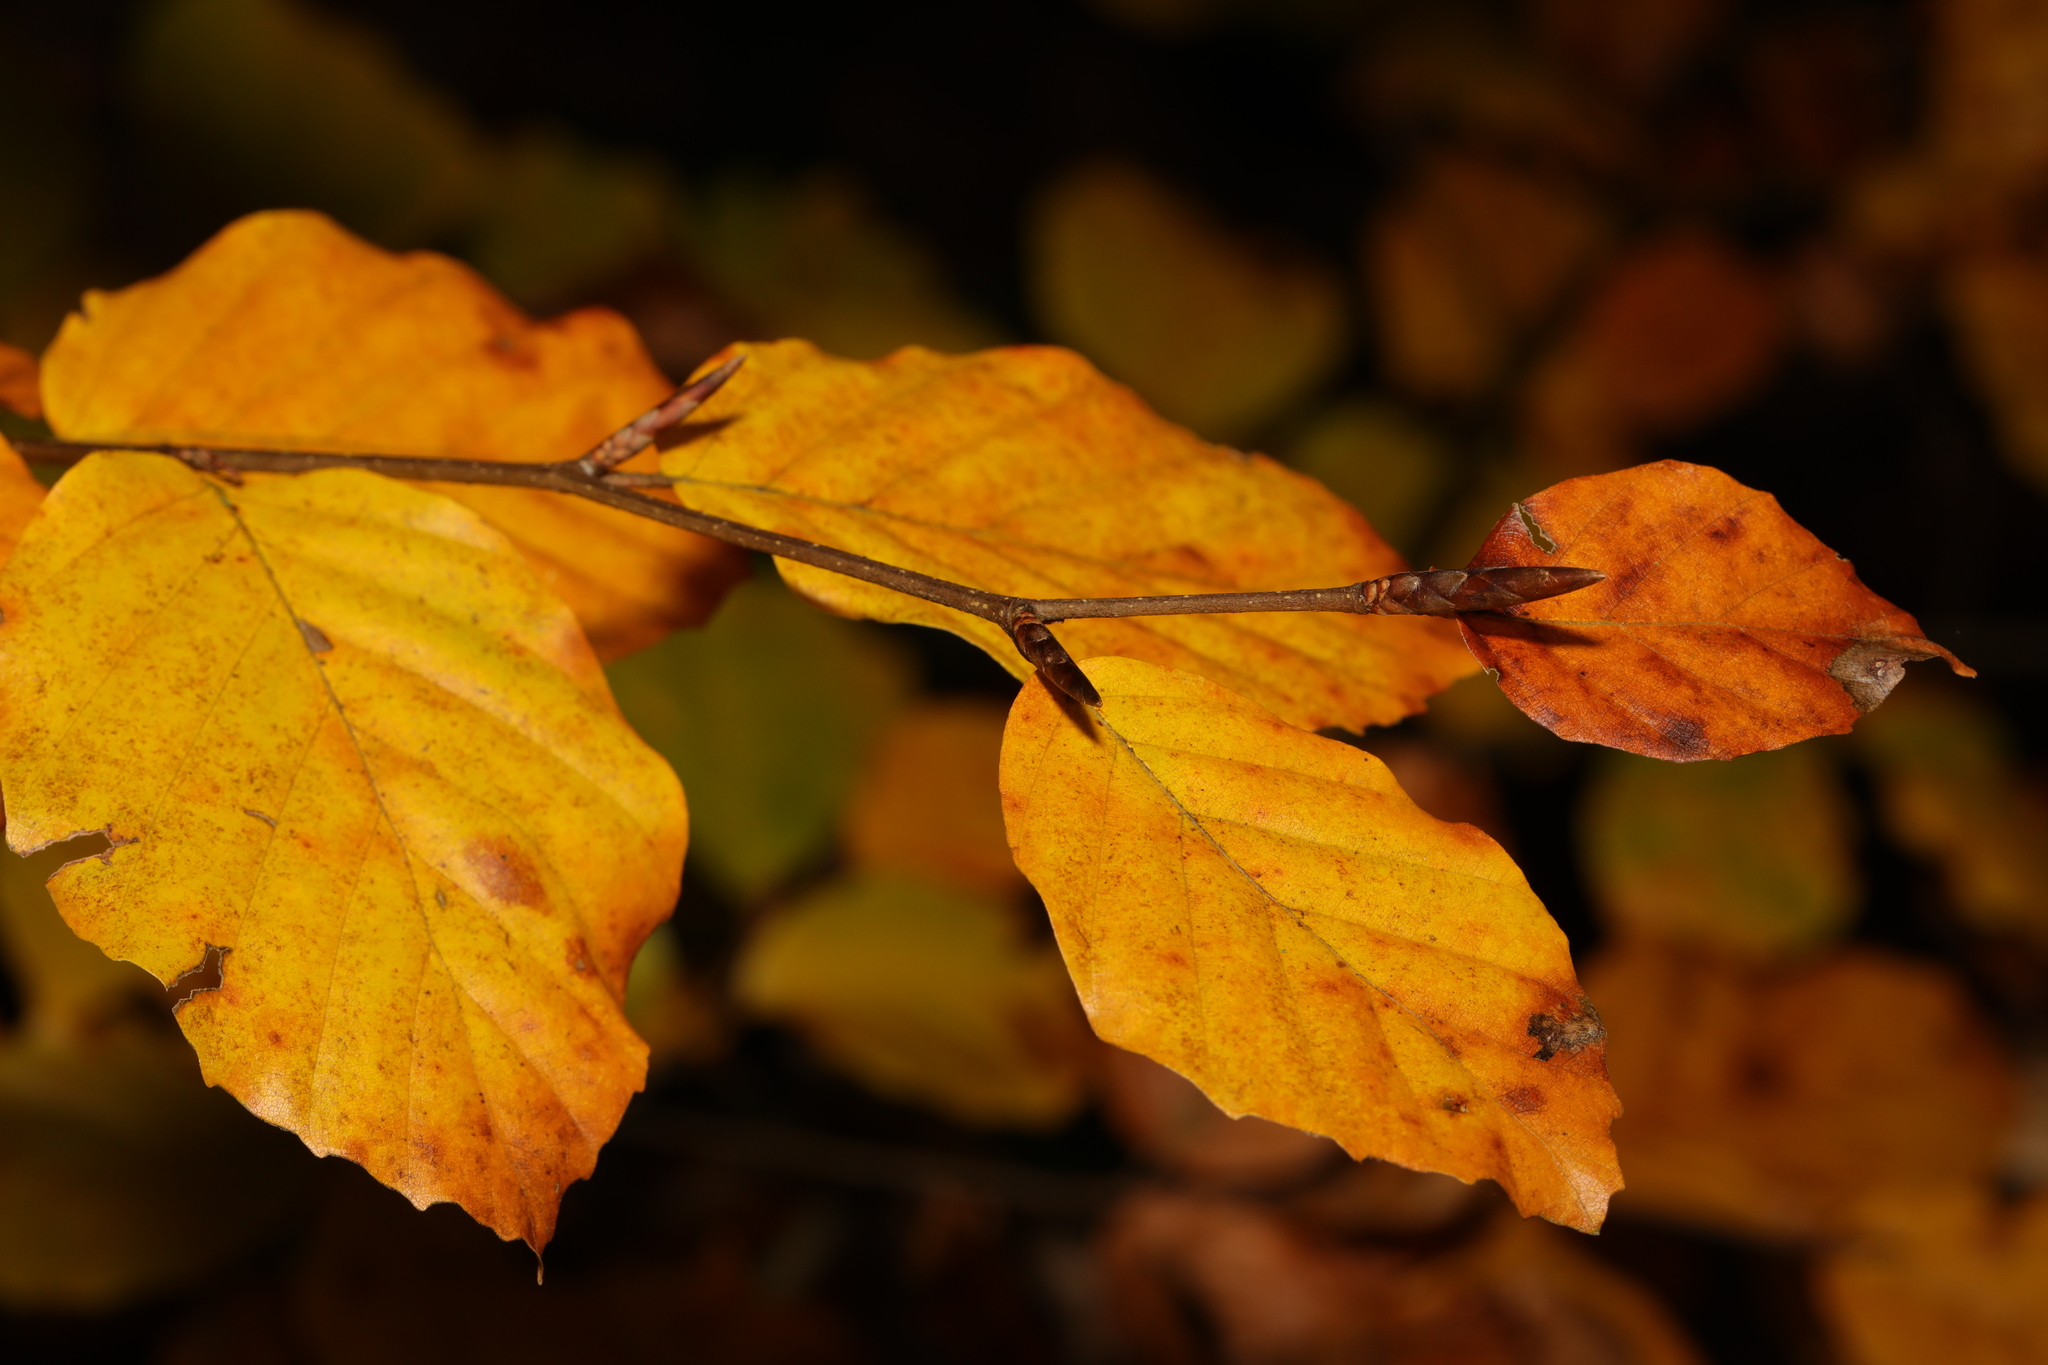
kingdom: Plantae
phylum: Tracheophyta
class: Magnoliopsida
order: Fagales
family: Fagaceae
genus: Fagus
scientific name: Fagus sylvatica
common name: Beech
